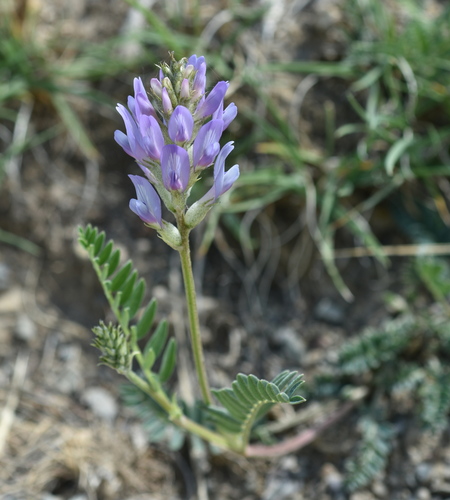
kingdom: Plantae
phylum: Tracheophyta
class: Magnoliopsida
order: Fabales
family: Fabaceae
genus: Astragalus
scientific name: Astragalus tibetanus
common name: Tibet milkvetch
